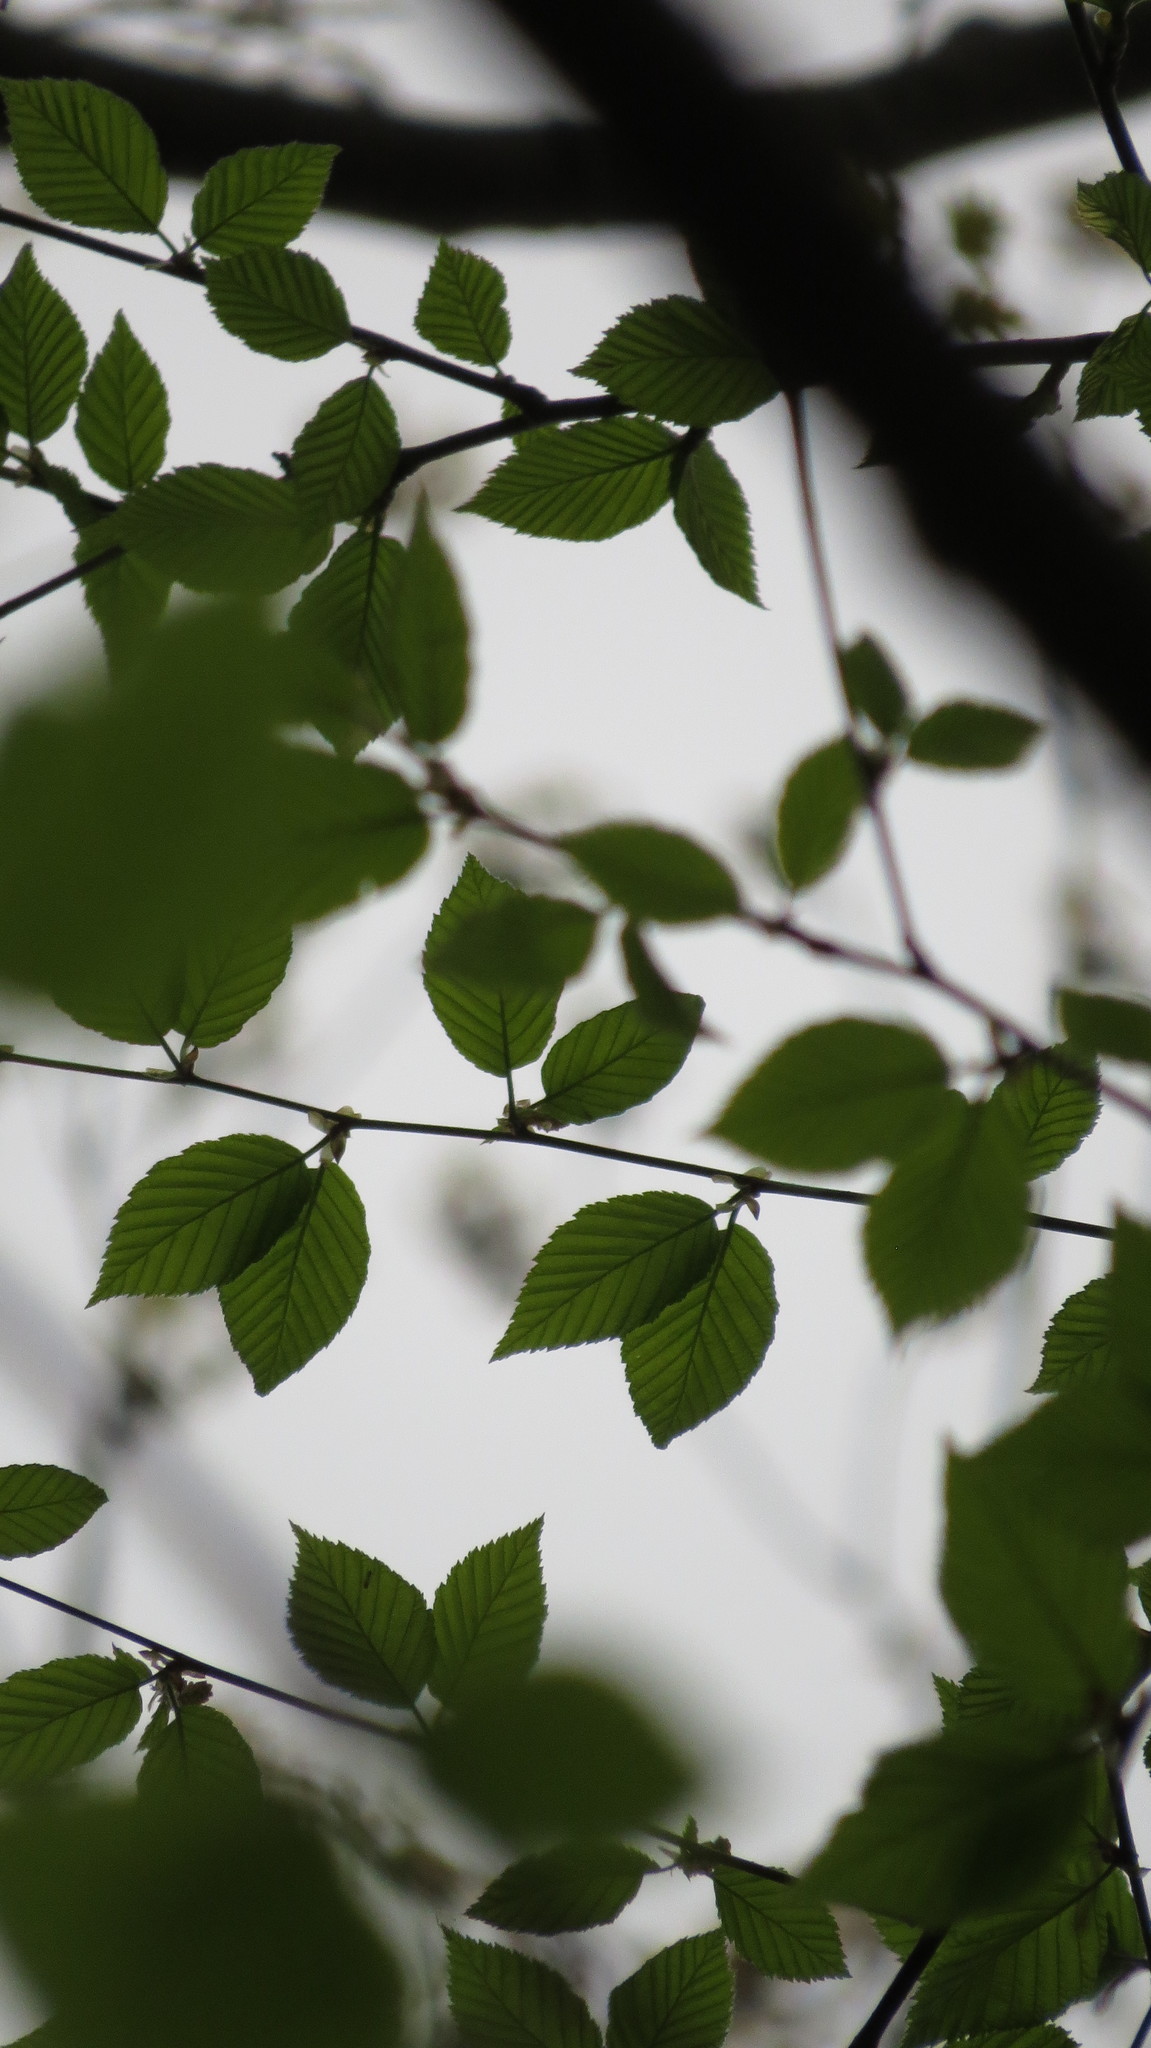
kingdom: Plantae
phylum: Tracheophyta
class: Magnoliopsida
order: Fagales
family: Betulaceae
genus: Betula
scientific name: Betula alleghaniensis
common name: Yellow birch
